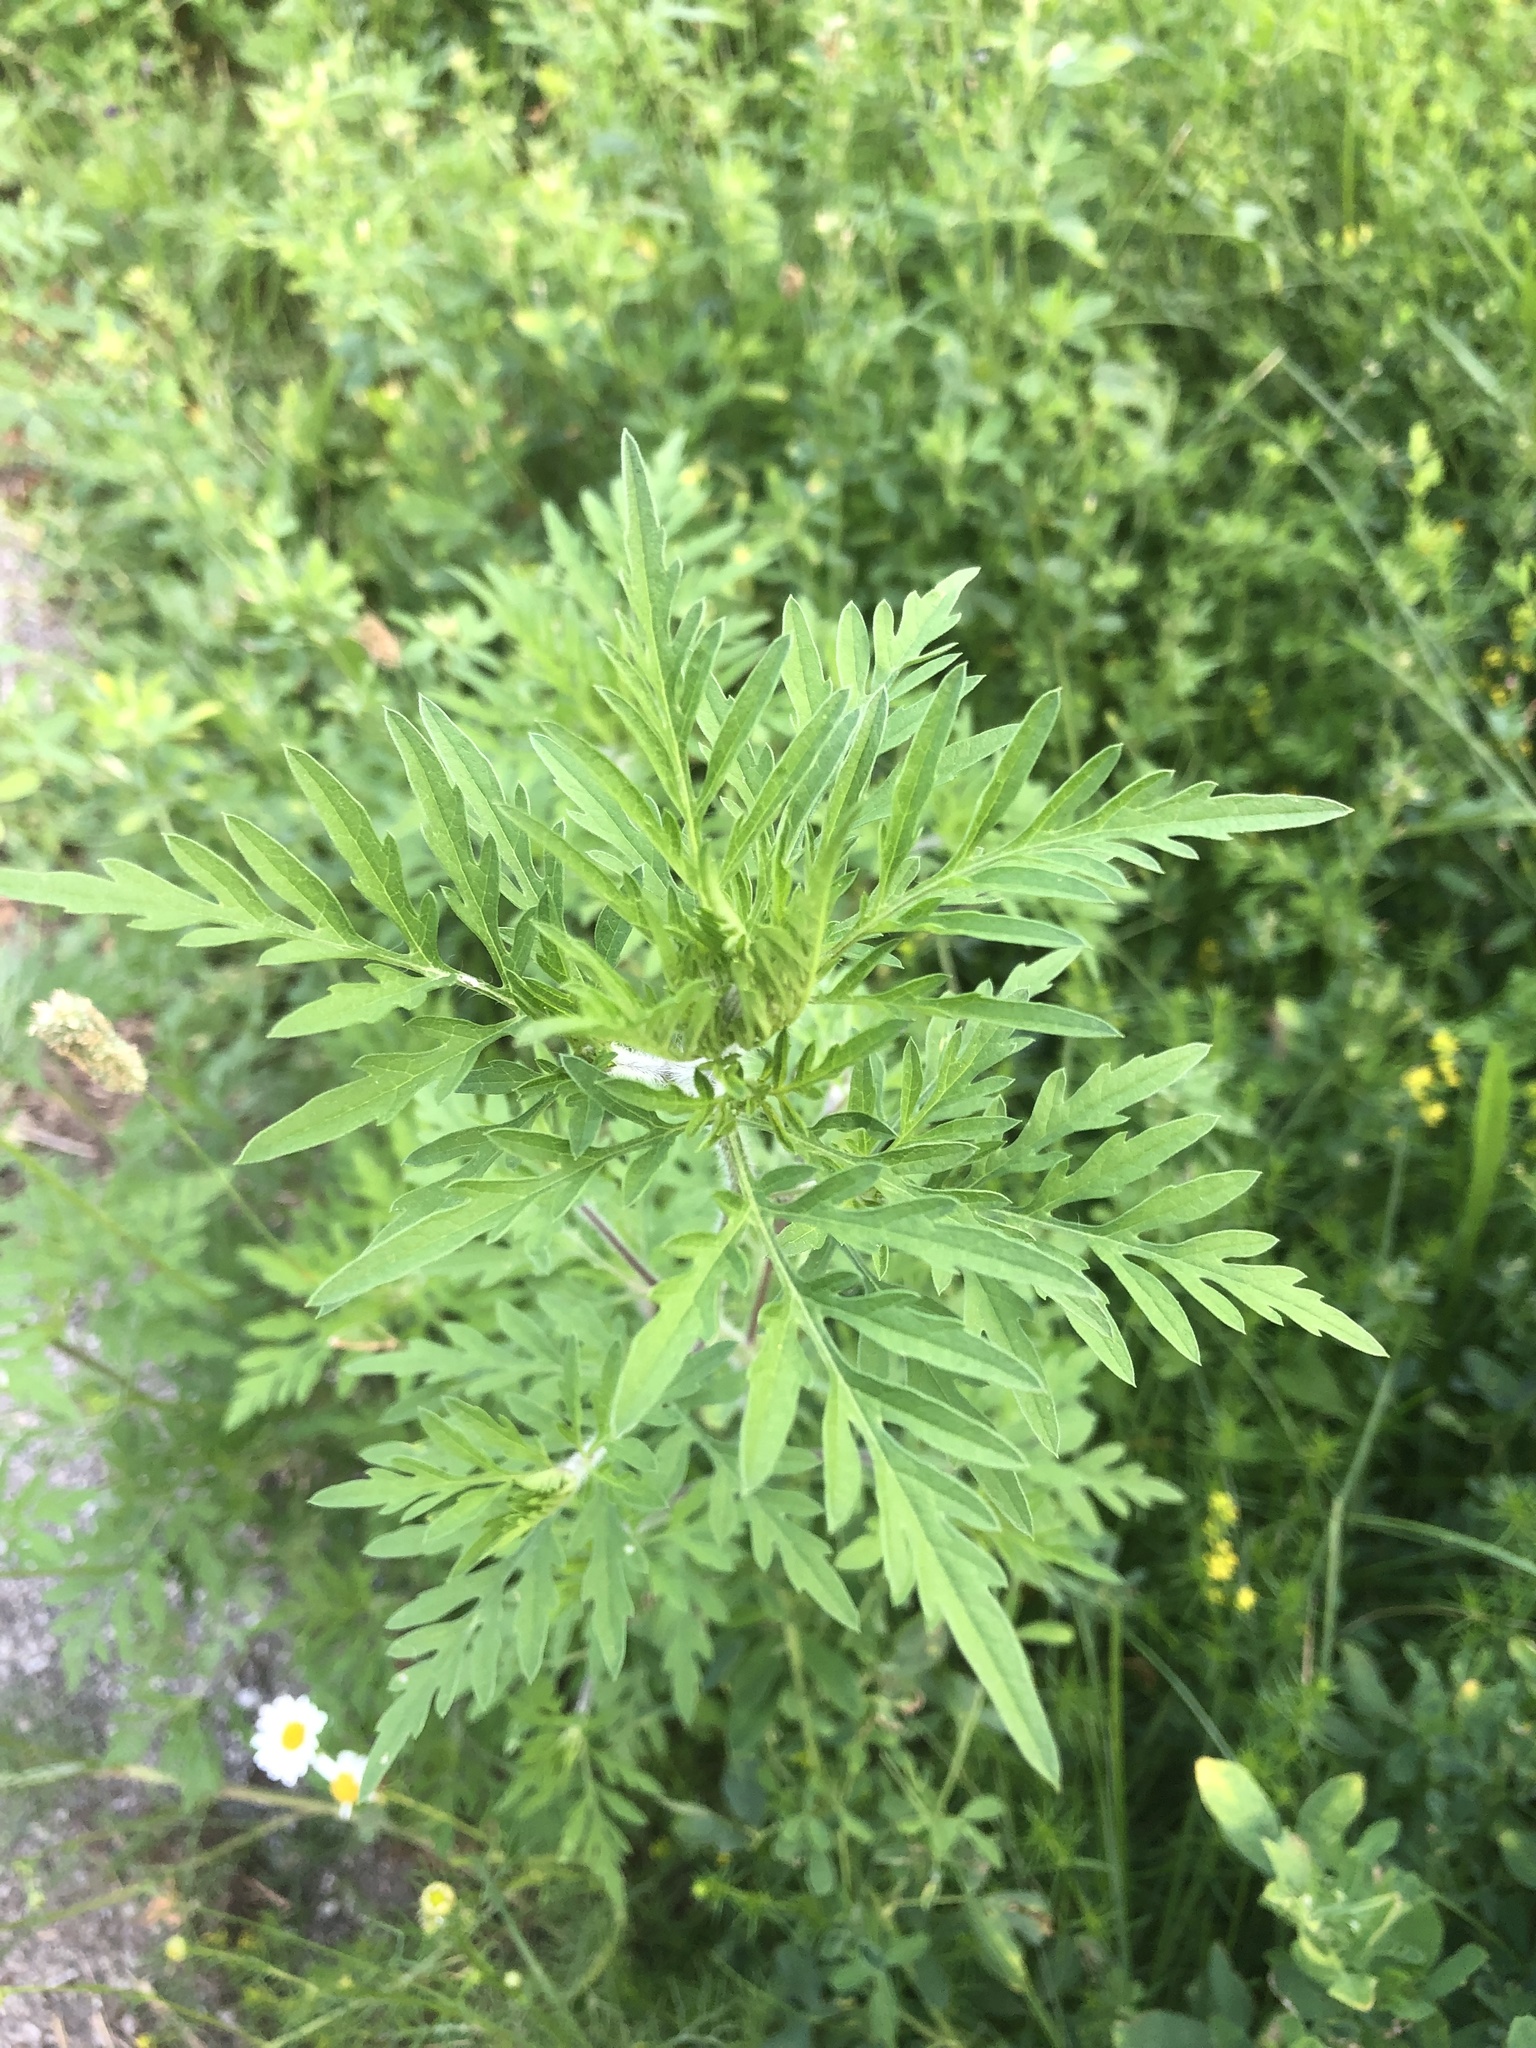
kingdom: Plantae
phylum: Tracheophyta
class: Magnoliopsida
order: Asterales
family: Asteraceae
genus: Ambrosia
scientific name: Ambrosia artemisiifolia
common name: Annual ragweed
